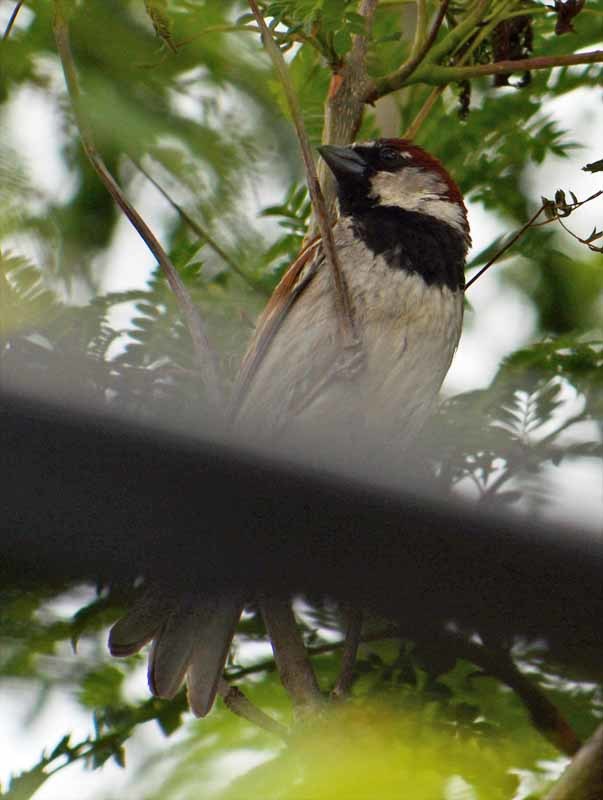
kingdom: Animalia
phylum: Chordata
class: Aves
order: Passeriformes
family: Passeridae
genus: Passer
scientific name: Passer domesticus
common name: House sparrow
